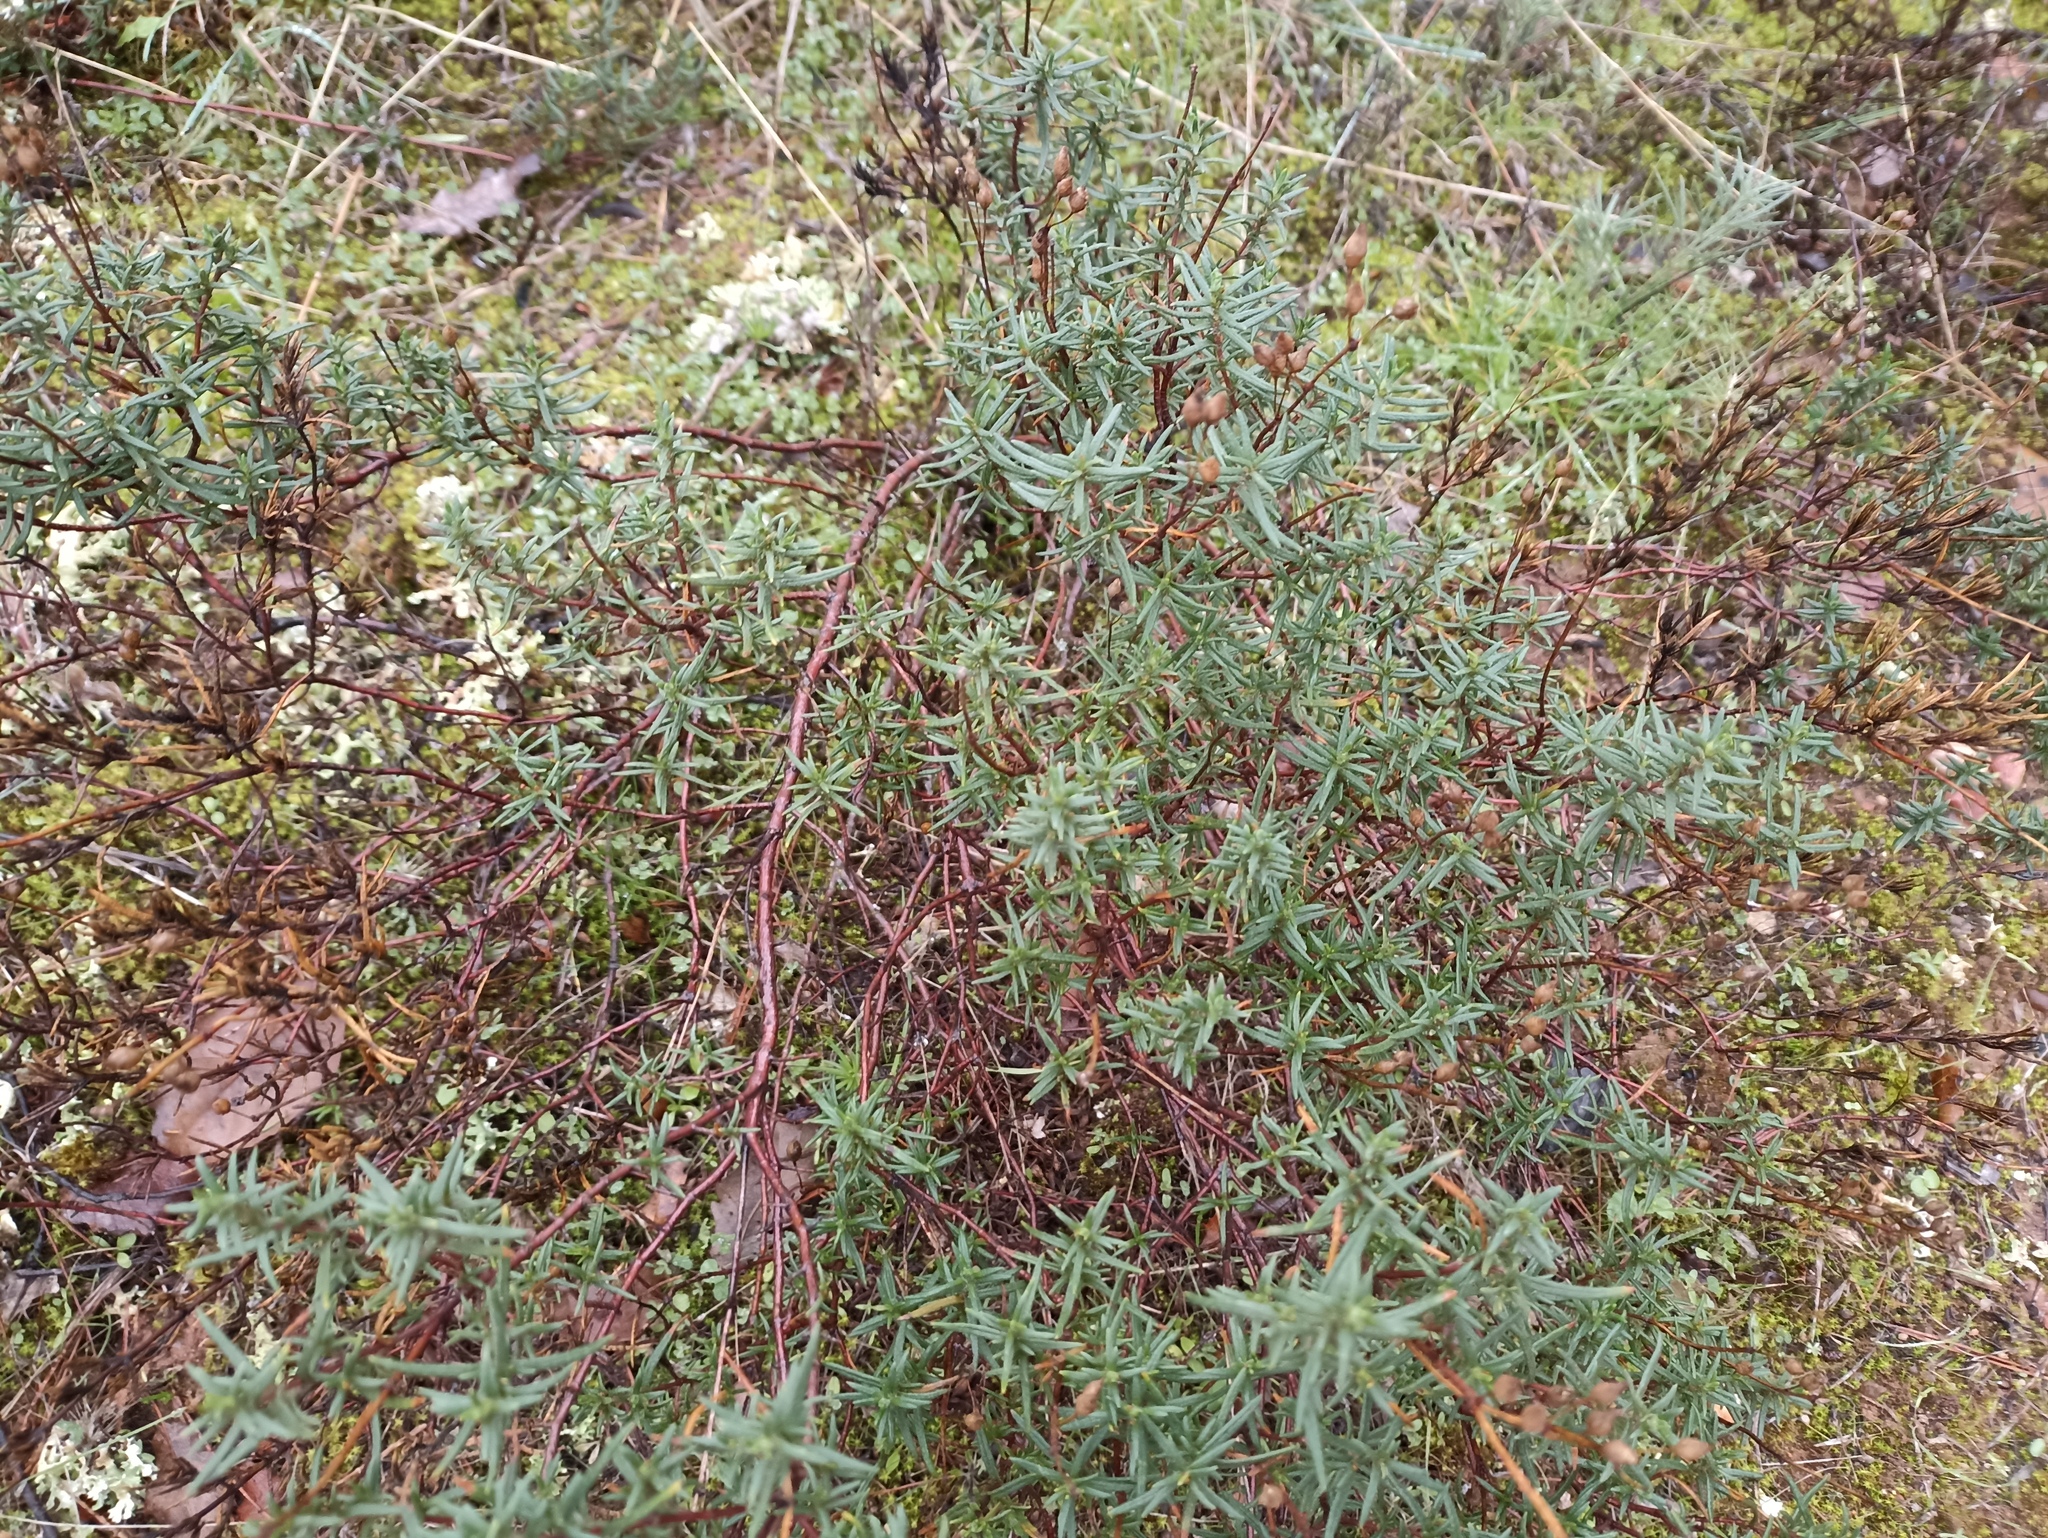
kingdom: Plantae
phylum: Tracheophyta
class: Magnoliopsida
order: Malvales
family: Cistaceae
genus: Cistus
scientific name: Cistus clusii
